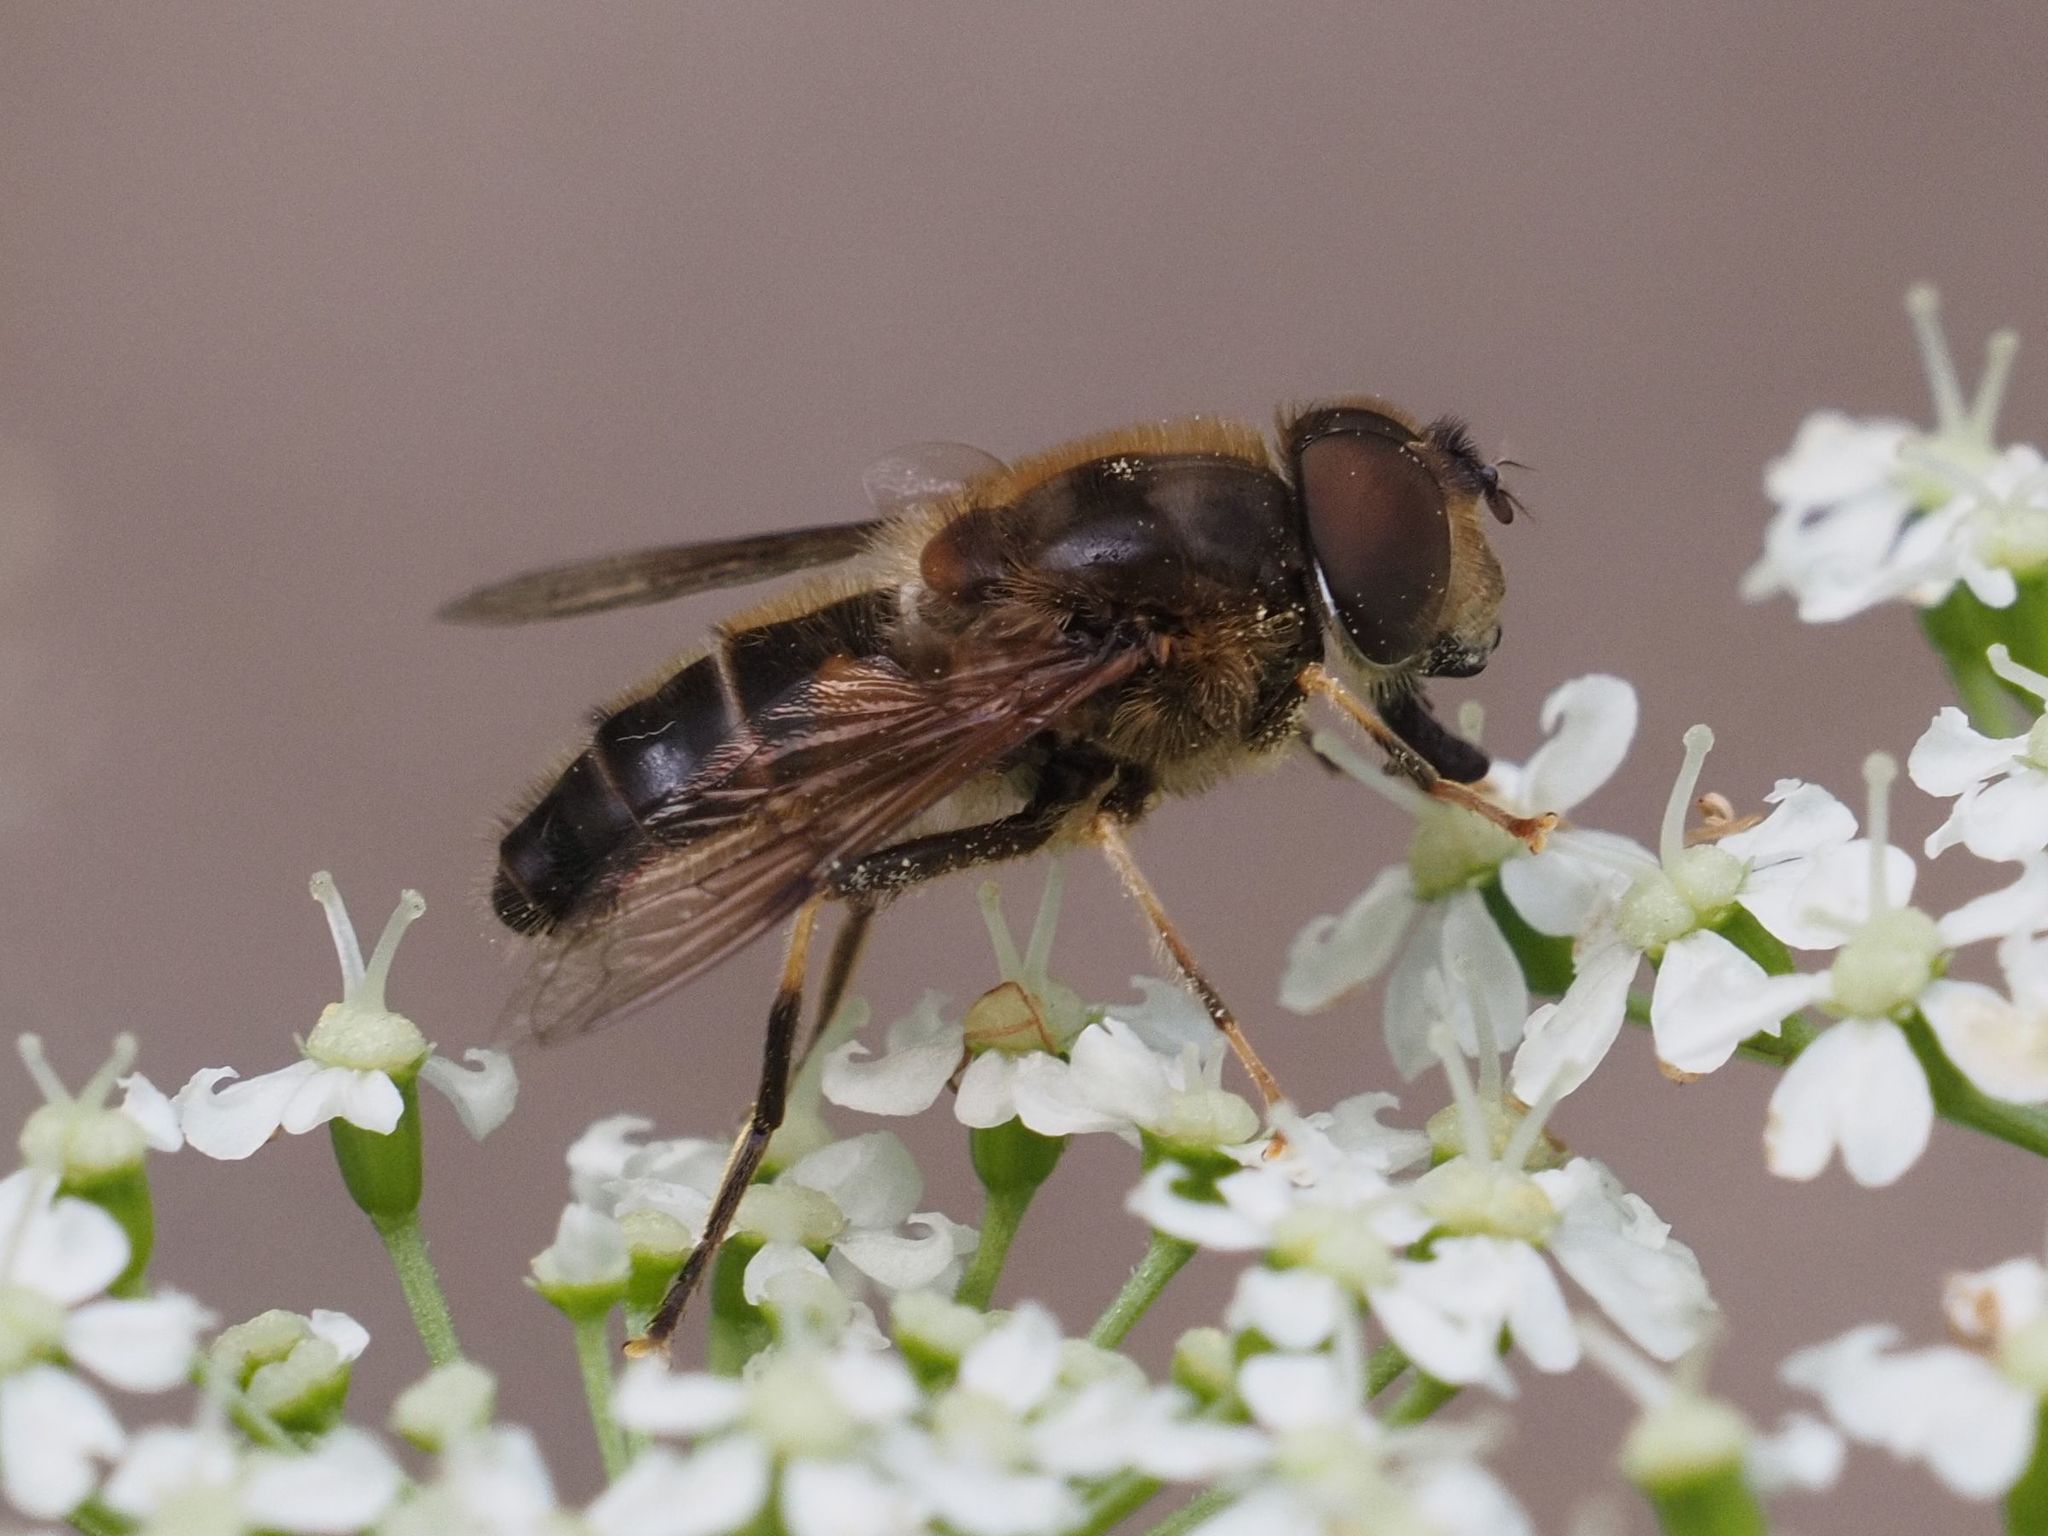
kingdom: Animalia
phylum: Arthropoda
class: Insecta
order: Diptera
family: Syrphidae
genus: Eristalis
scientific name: Eristalis pertinax
